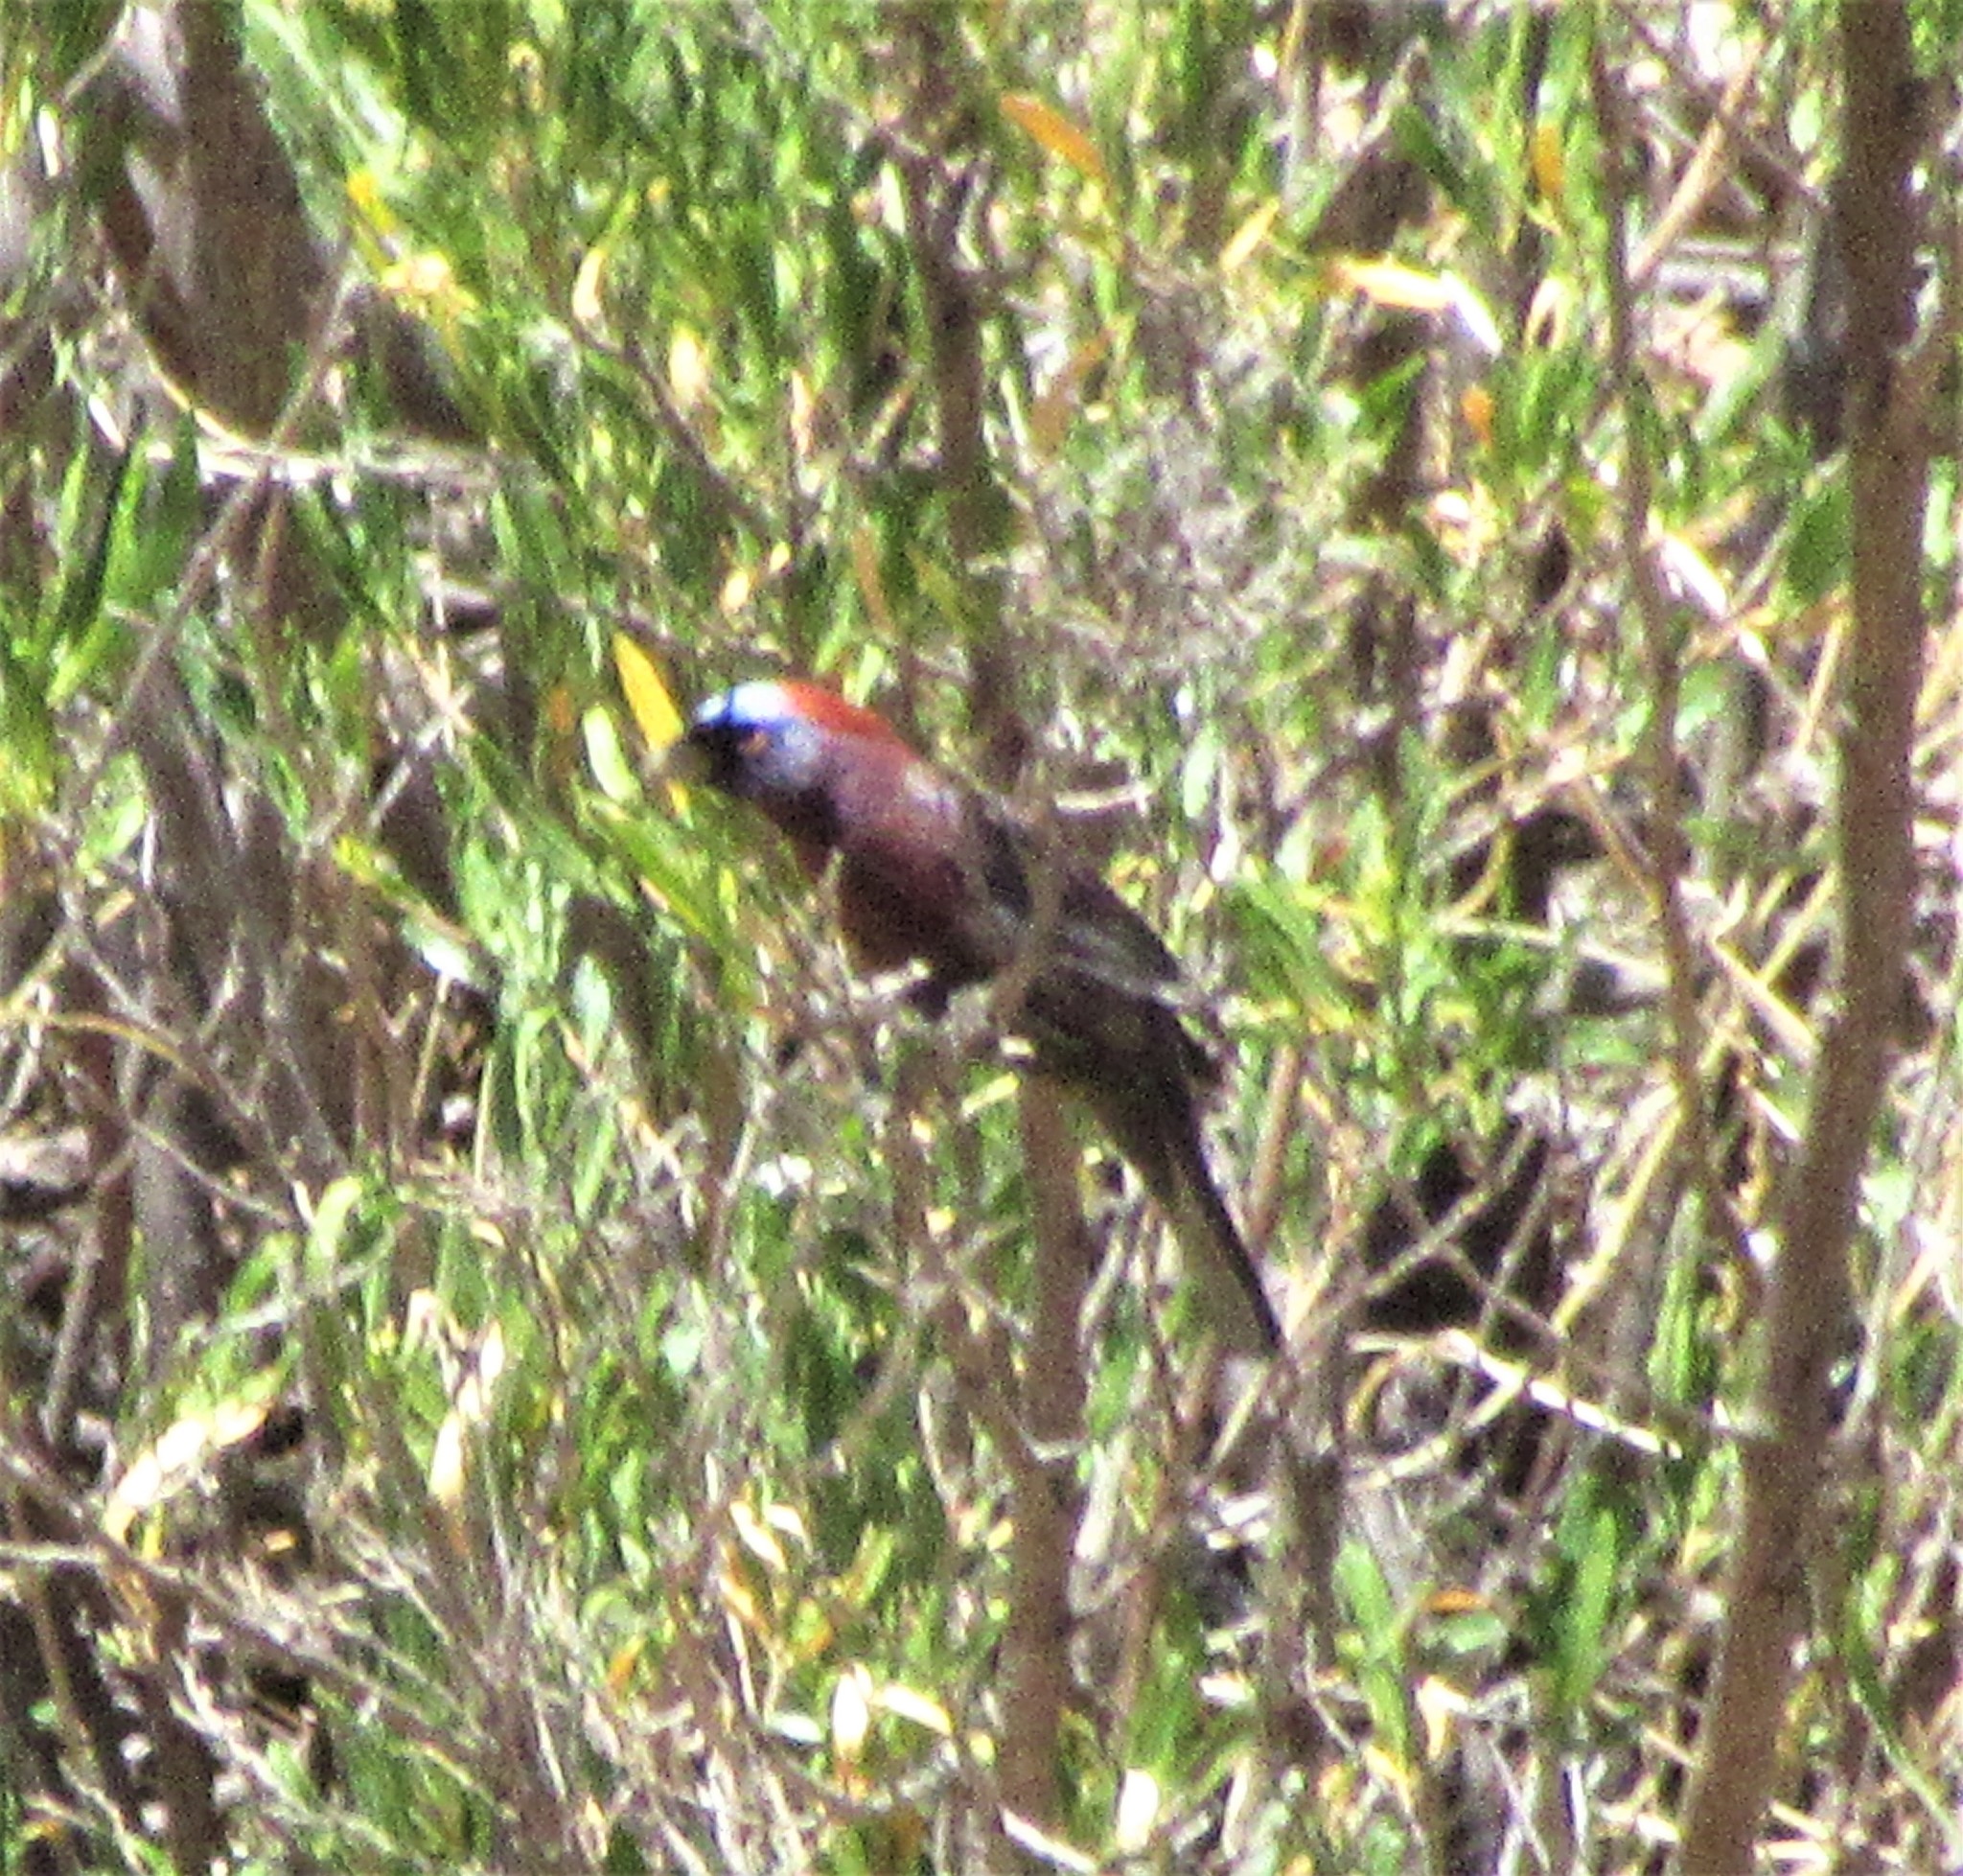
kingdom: Animalia
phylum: Chordata
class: Aves
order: Passeriformes
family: Cardinalidae
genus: Passerina
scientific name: Passerina versicolor
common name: Varied bunting
